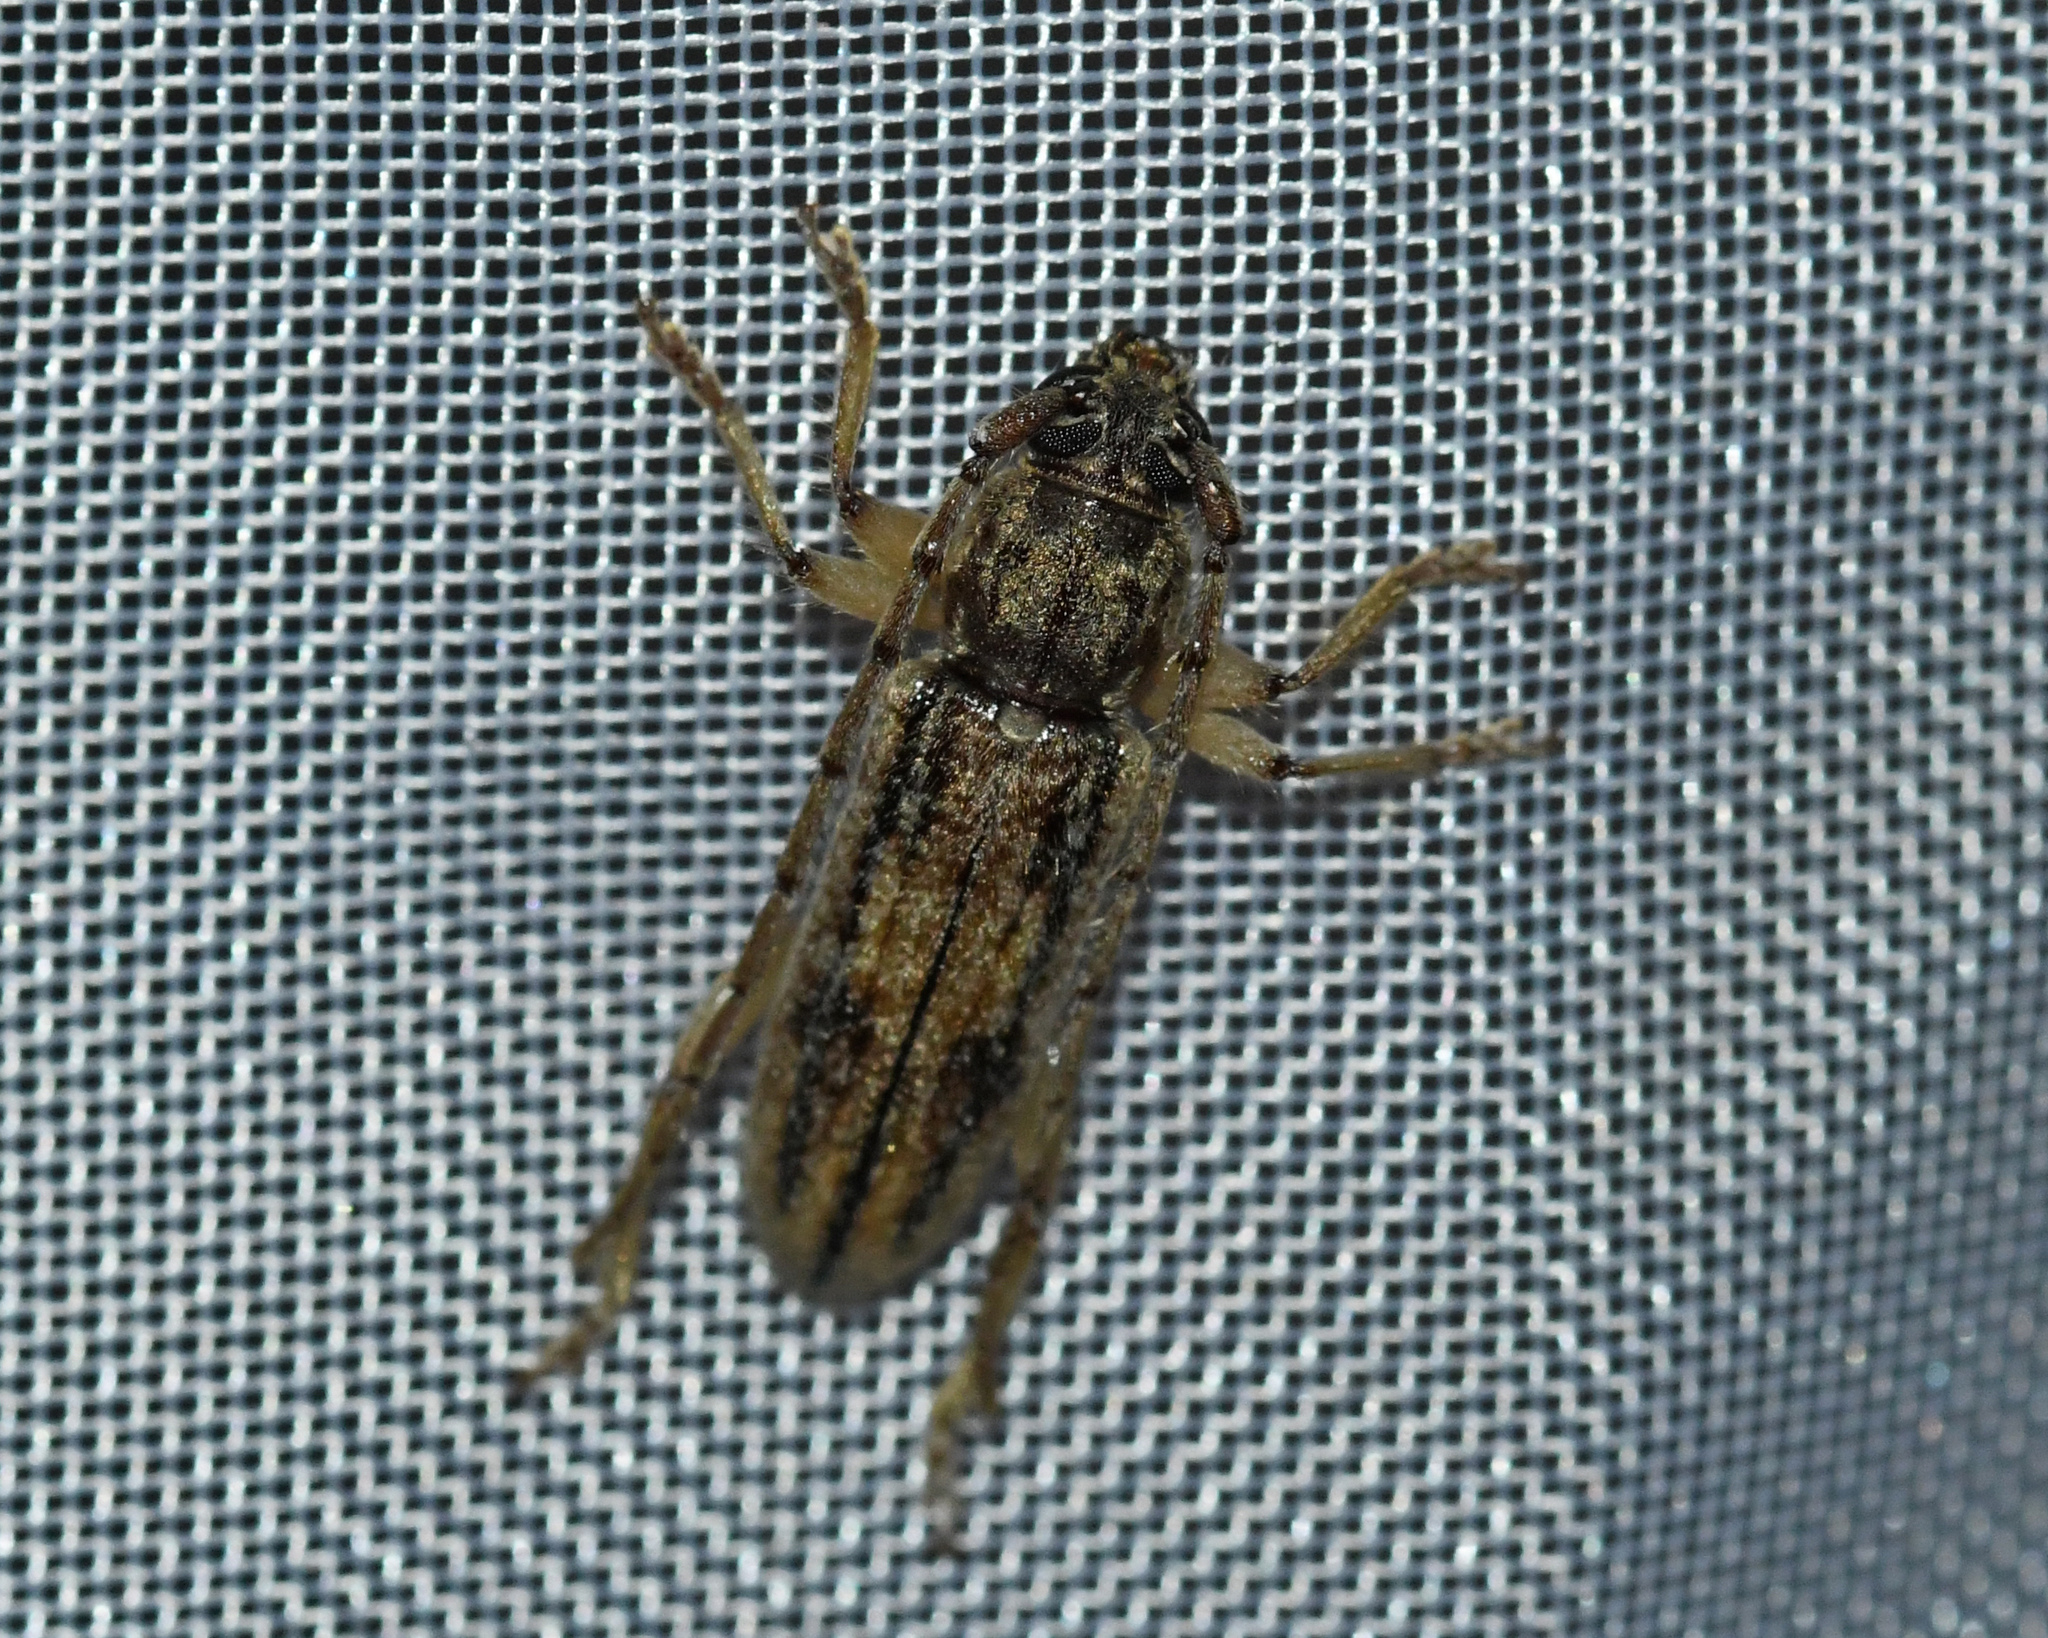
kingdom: Animalia
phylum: Arthropoda
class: Insecta
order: Coleoptera
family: Cerambycidae
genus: Anelaphus
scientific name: Anelaphus cinereus
